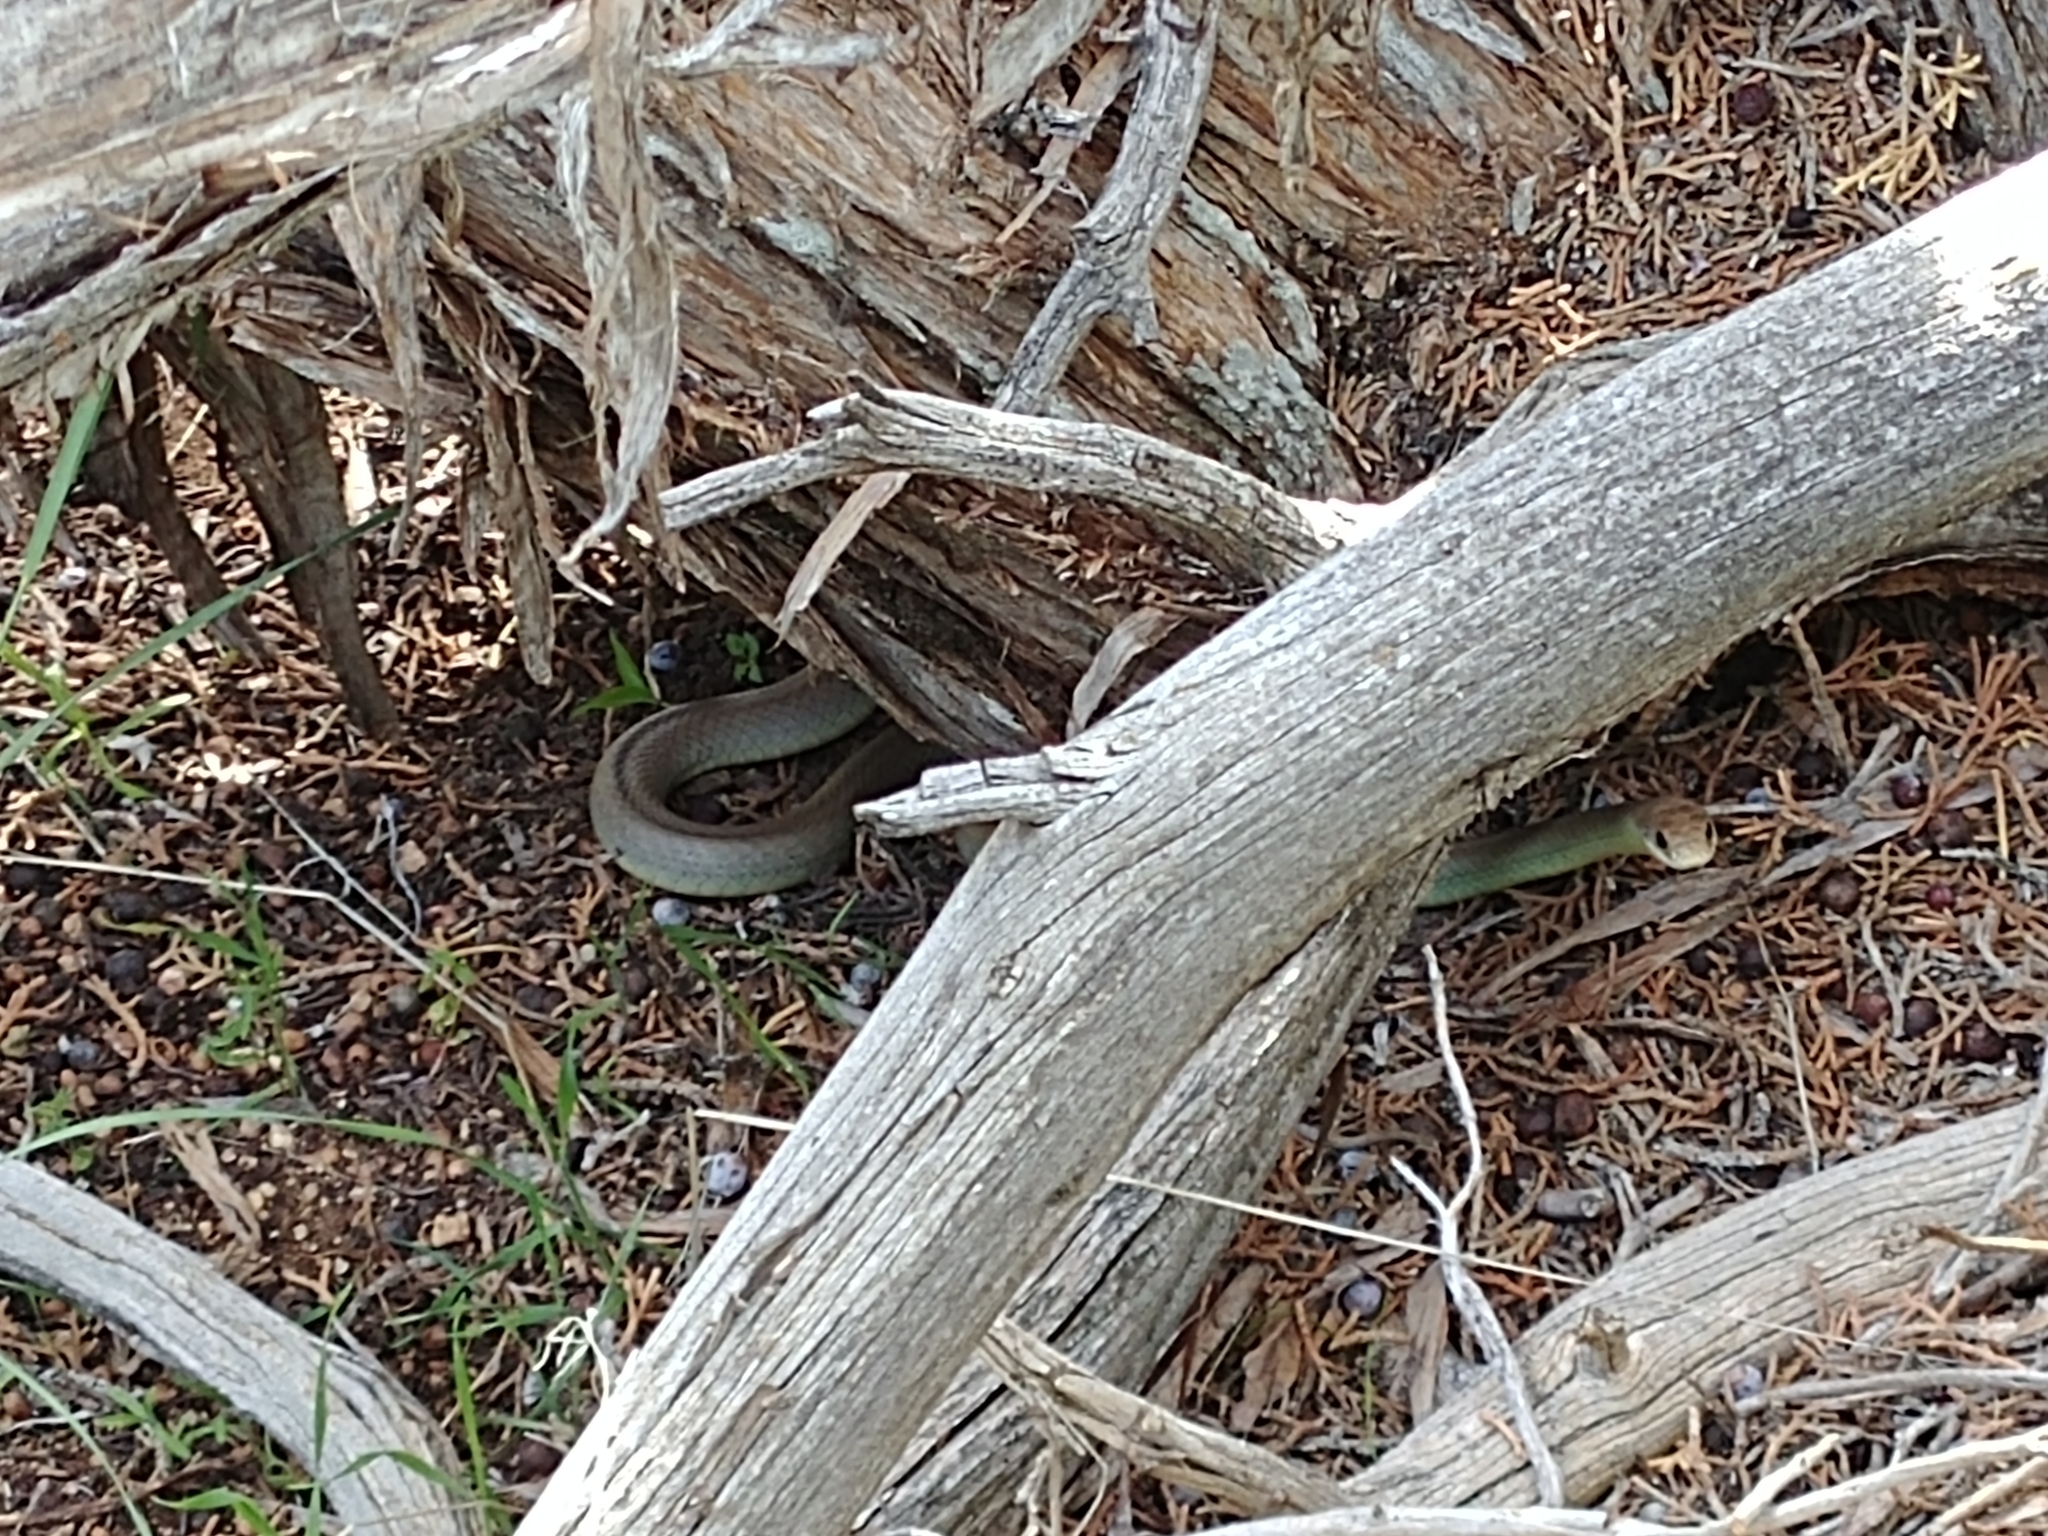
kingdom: Animalia
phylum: Chordata
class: Squamata
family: Colubridae
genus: Coluber
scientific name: Coluber constrictor
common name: Eastern racer
